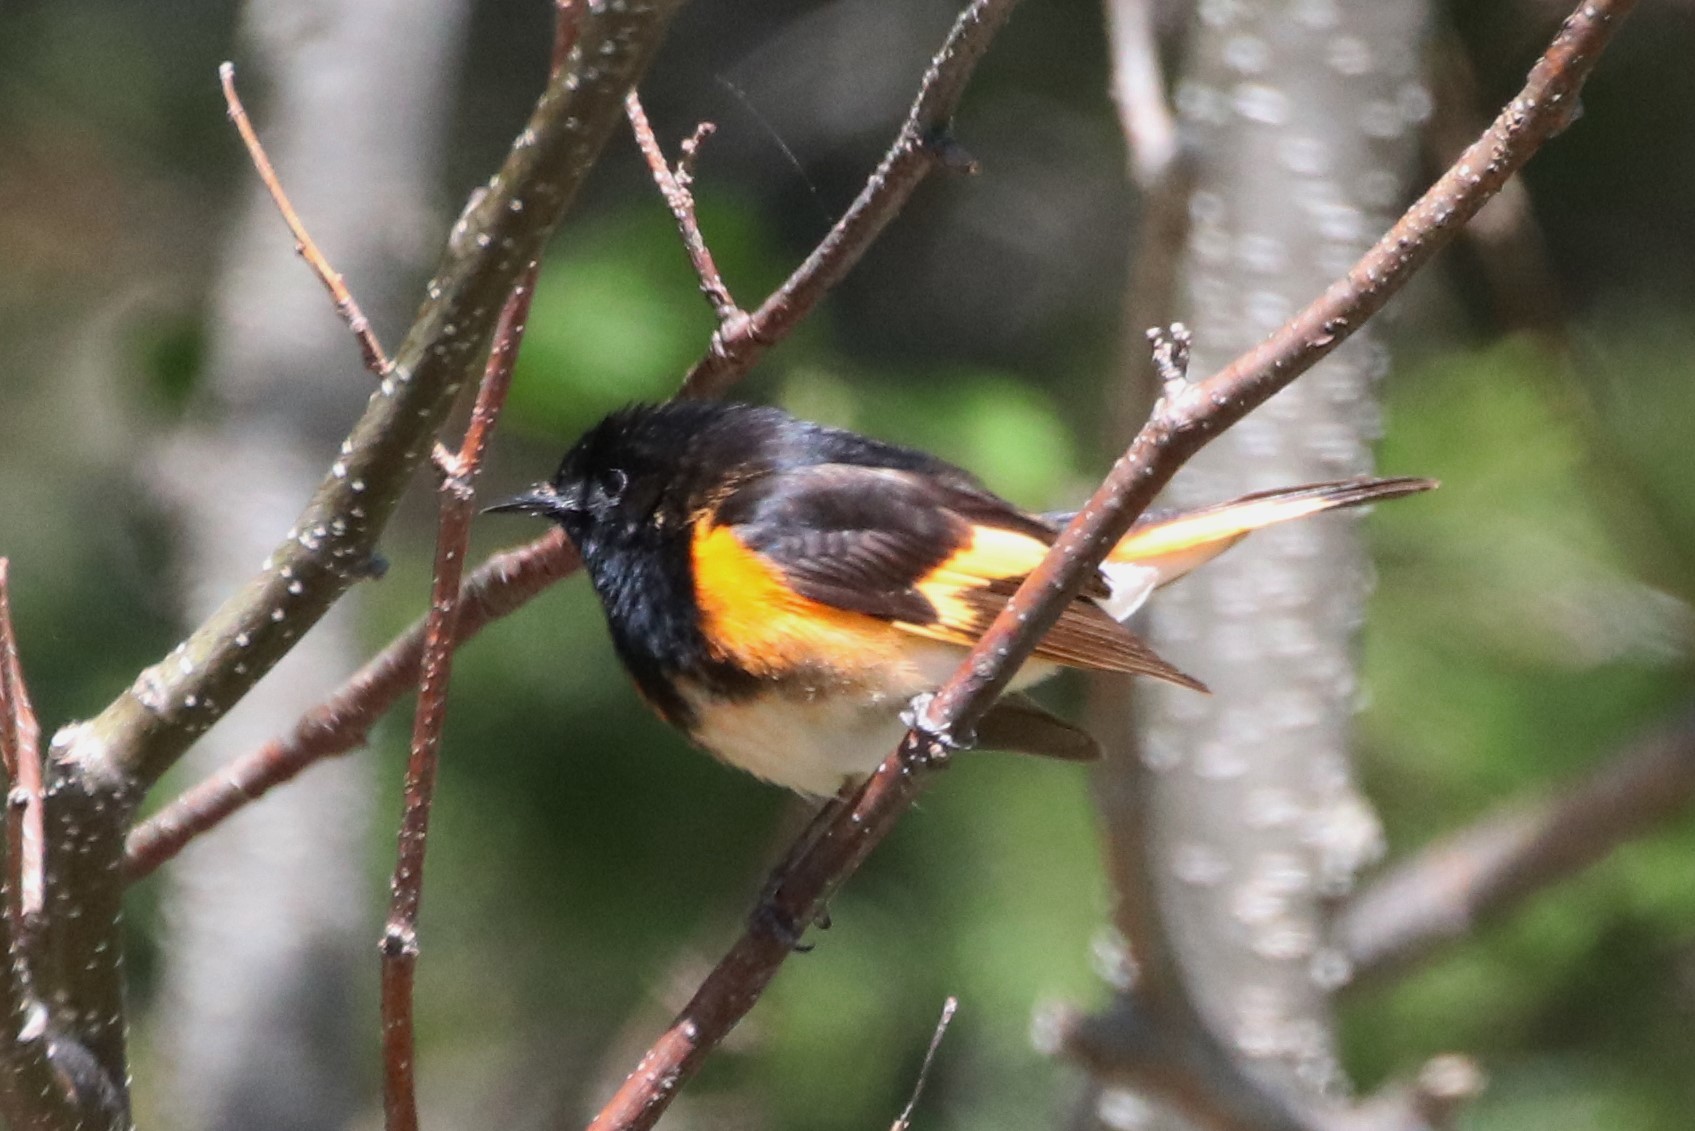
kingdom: Animalia
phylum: Chordata
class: Aves
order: Passeriformes
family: Parulidae
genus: Setophaga
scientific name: Setophaga ruticilla
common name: American redstart
